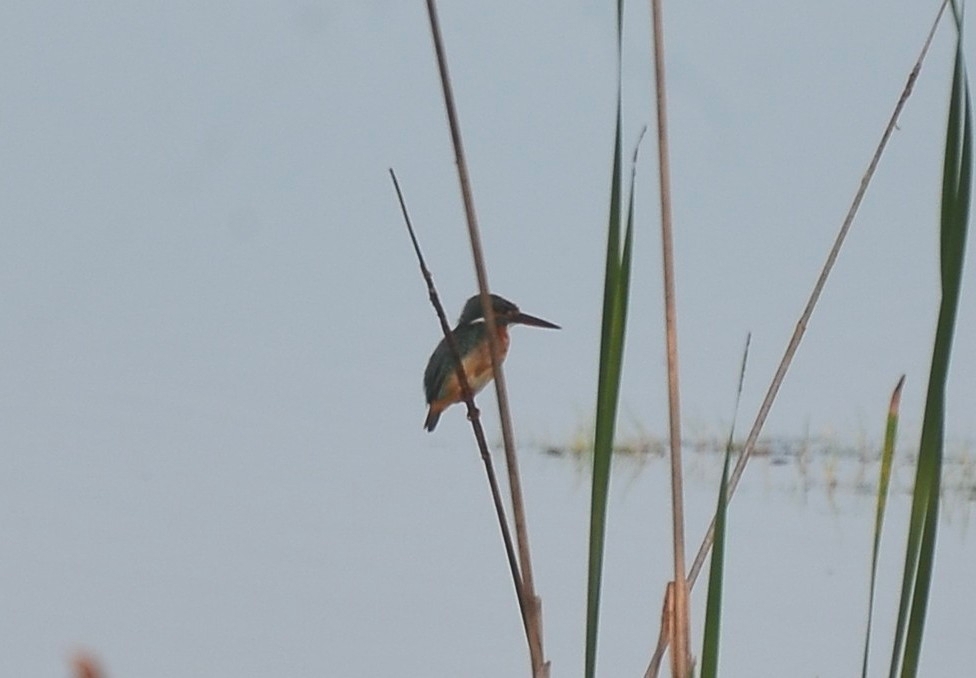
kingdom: Animalia
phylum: Chordata
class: Aves
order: Coraciiformes
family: Alcedinidae
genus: Alcedo
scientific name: Alcedo atthis
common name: Common kingfisher
